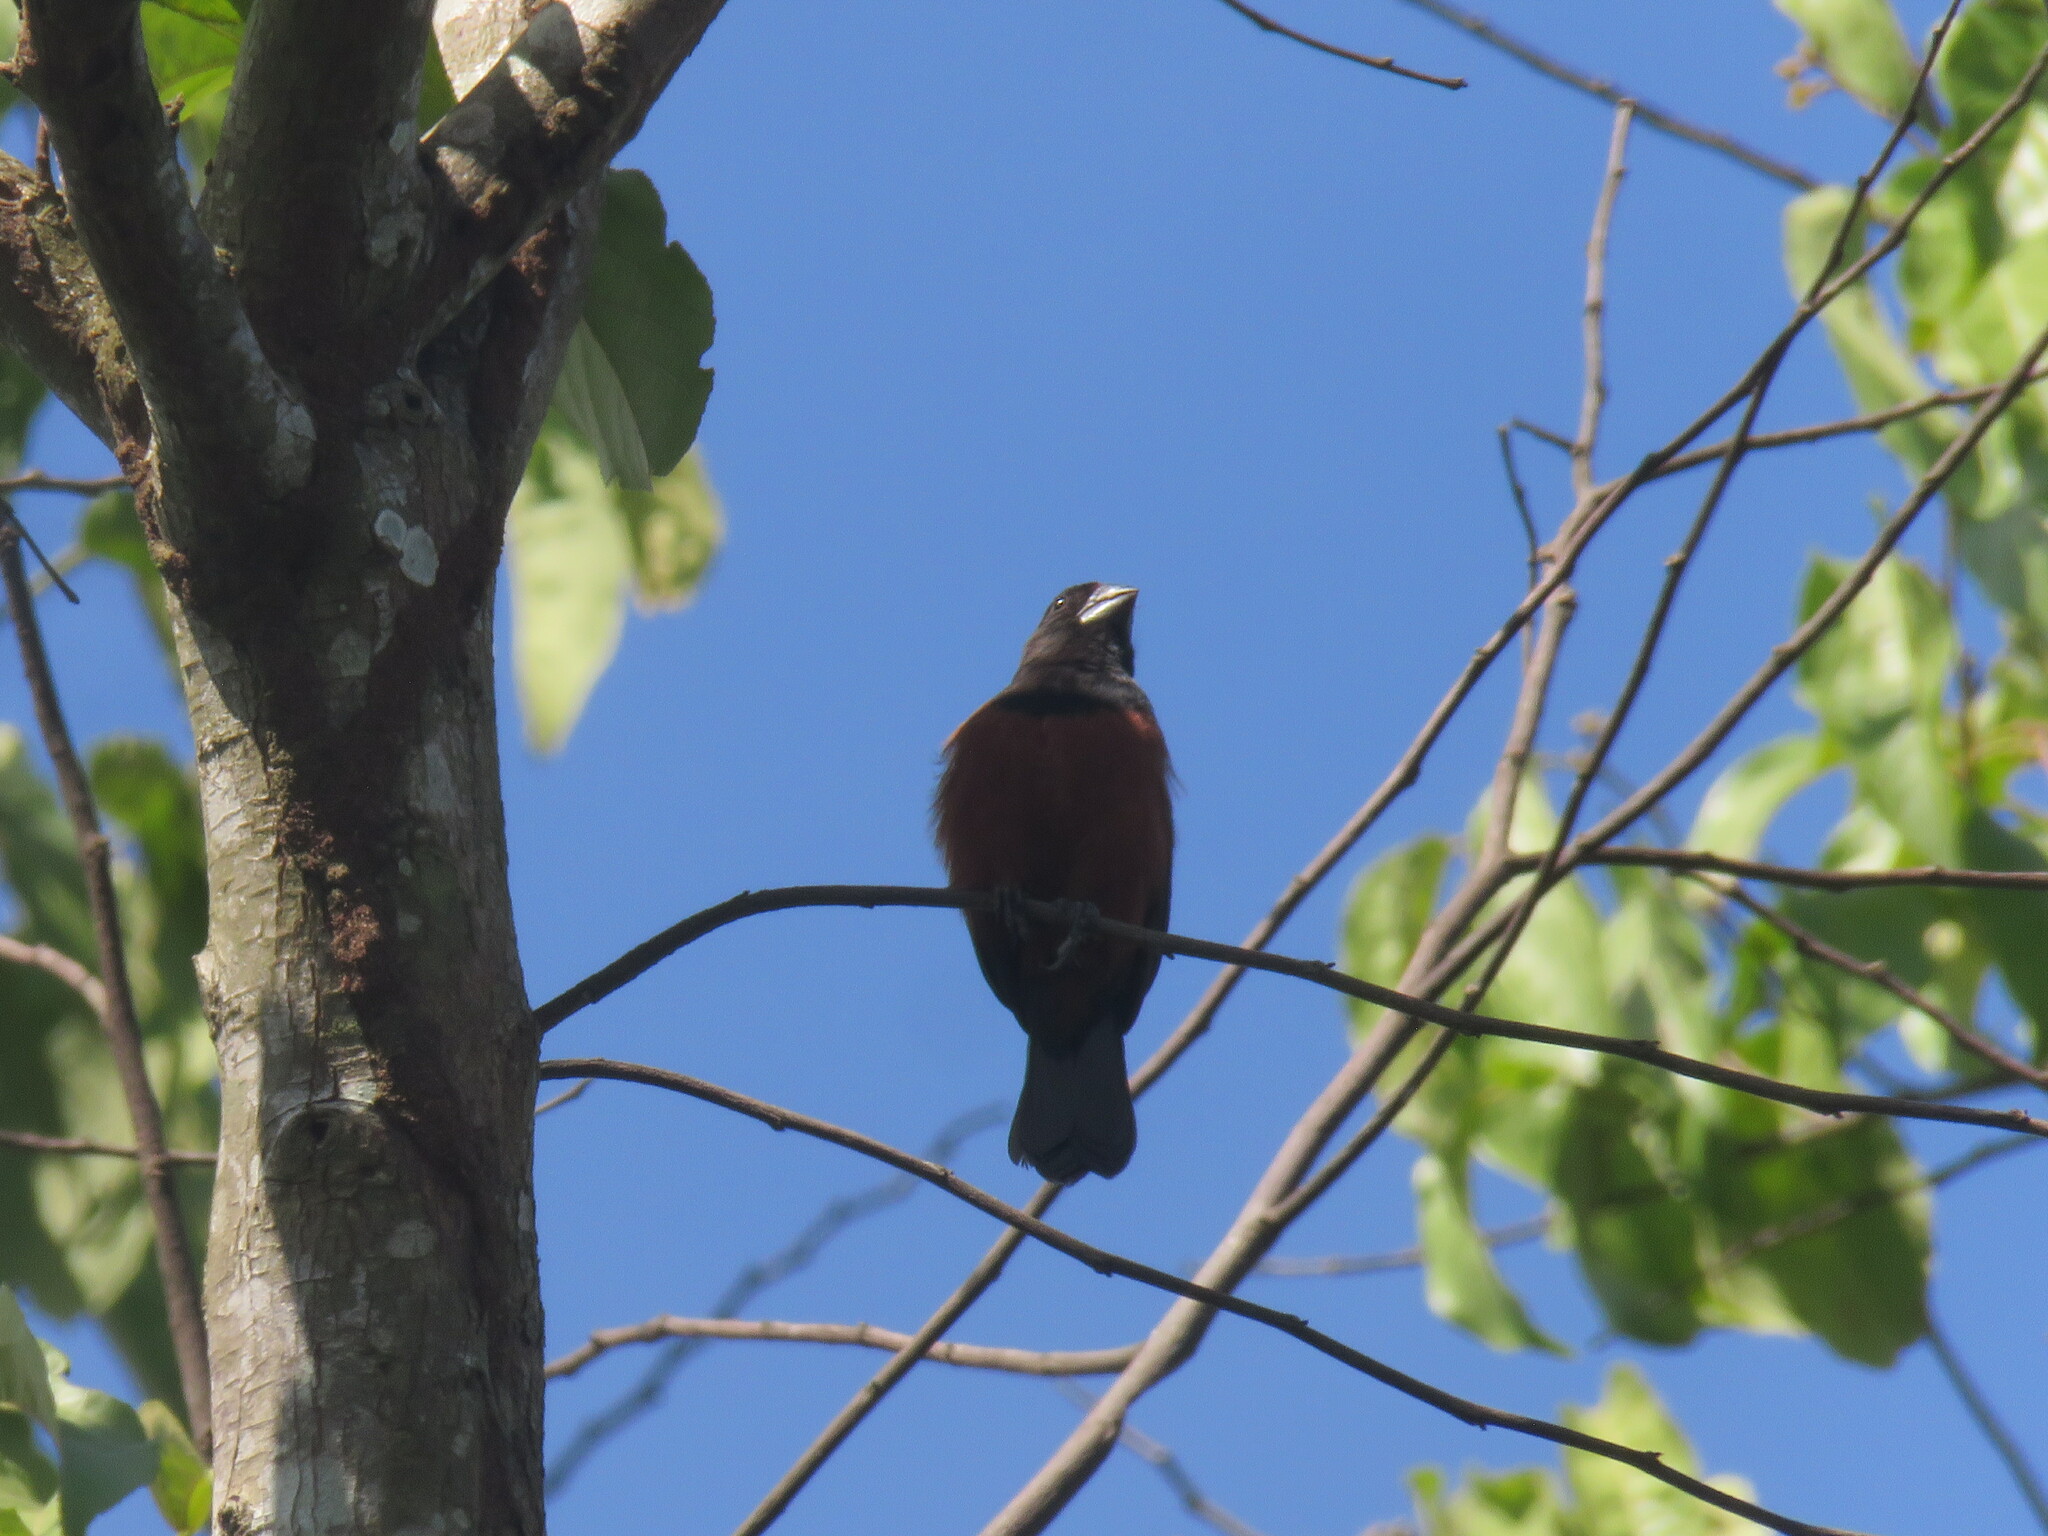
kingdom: Animalia
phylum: Chordata
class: Aves
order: Passeriformes
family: Thraupidae
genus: Sporophila
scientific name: Sporophila angolensis
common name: Chestnut-bellied seed-finch
